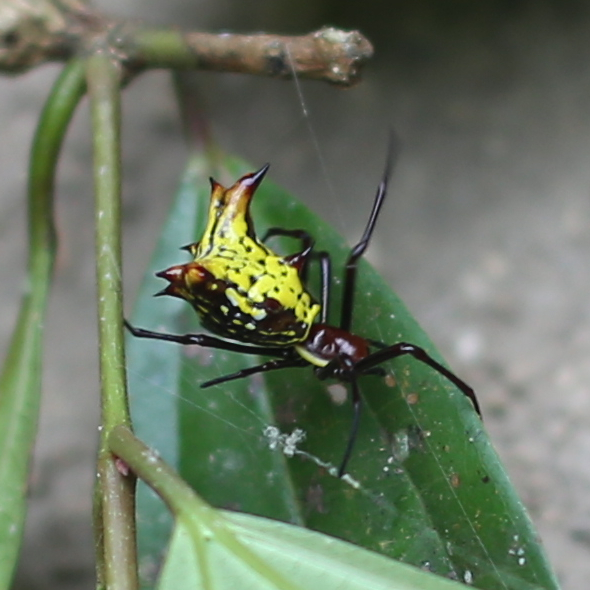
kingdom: Animalia
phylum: Arthropoda
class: Arachnida
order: Araneae
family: Araneidae
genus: Micrathena
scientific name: Micrathena fissispina
